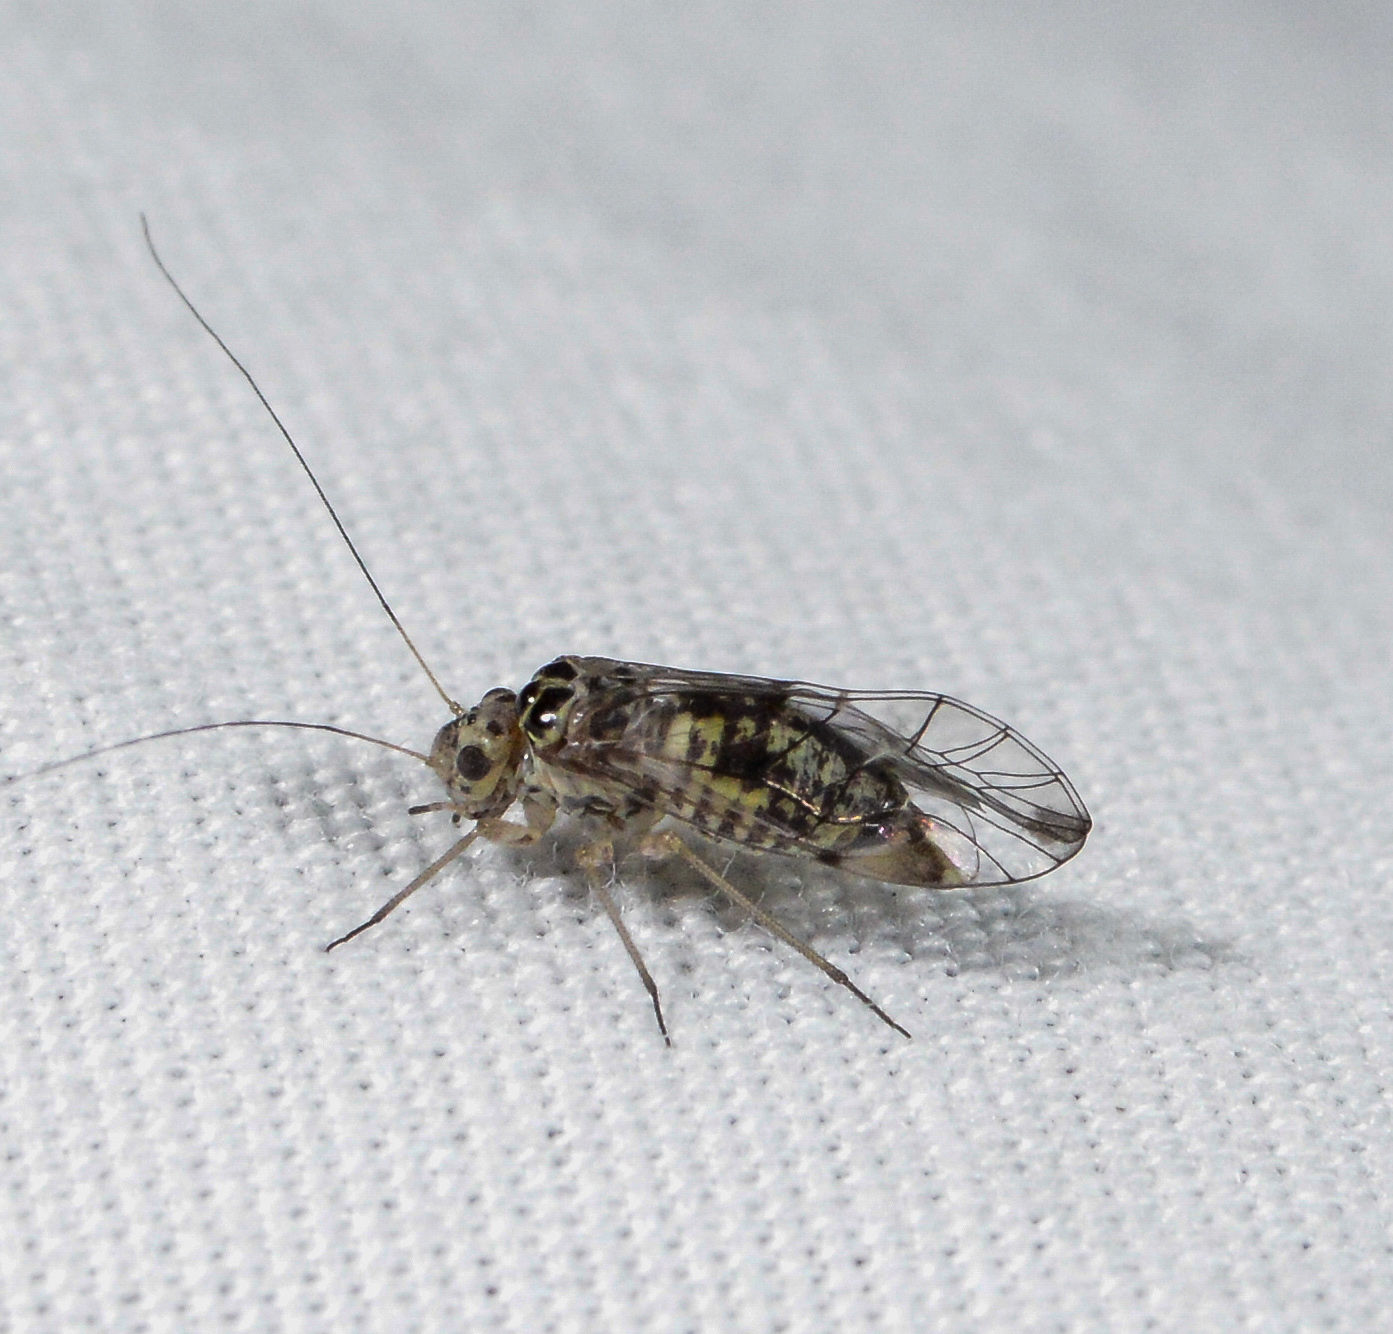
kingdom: Animalia
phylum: Arthropoda
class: Insecta
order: Psocodea
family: Dasydemellidae
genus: Teliapsocus
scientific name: Teliapsocus conterminus
